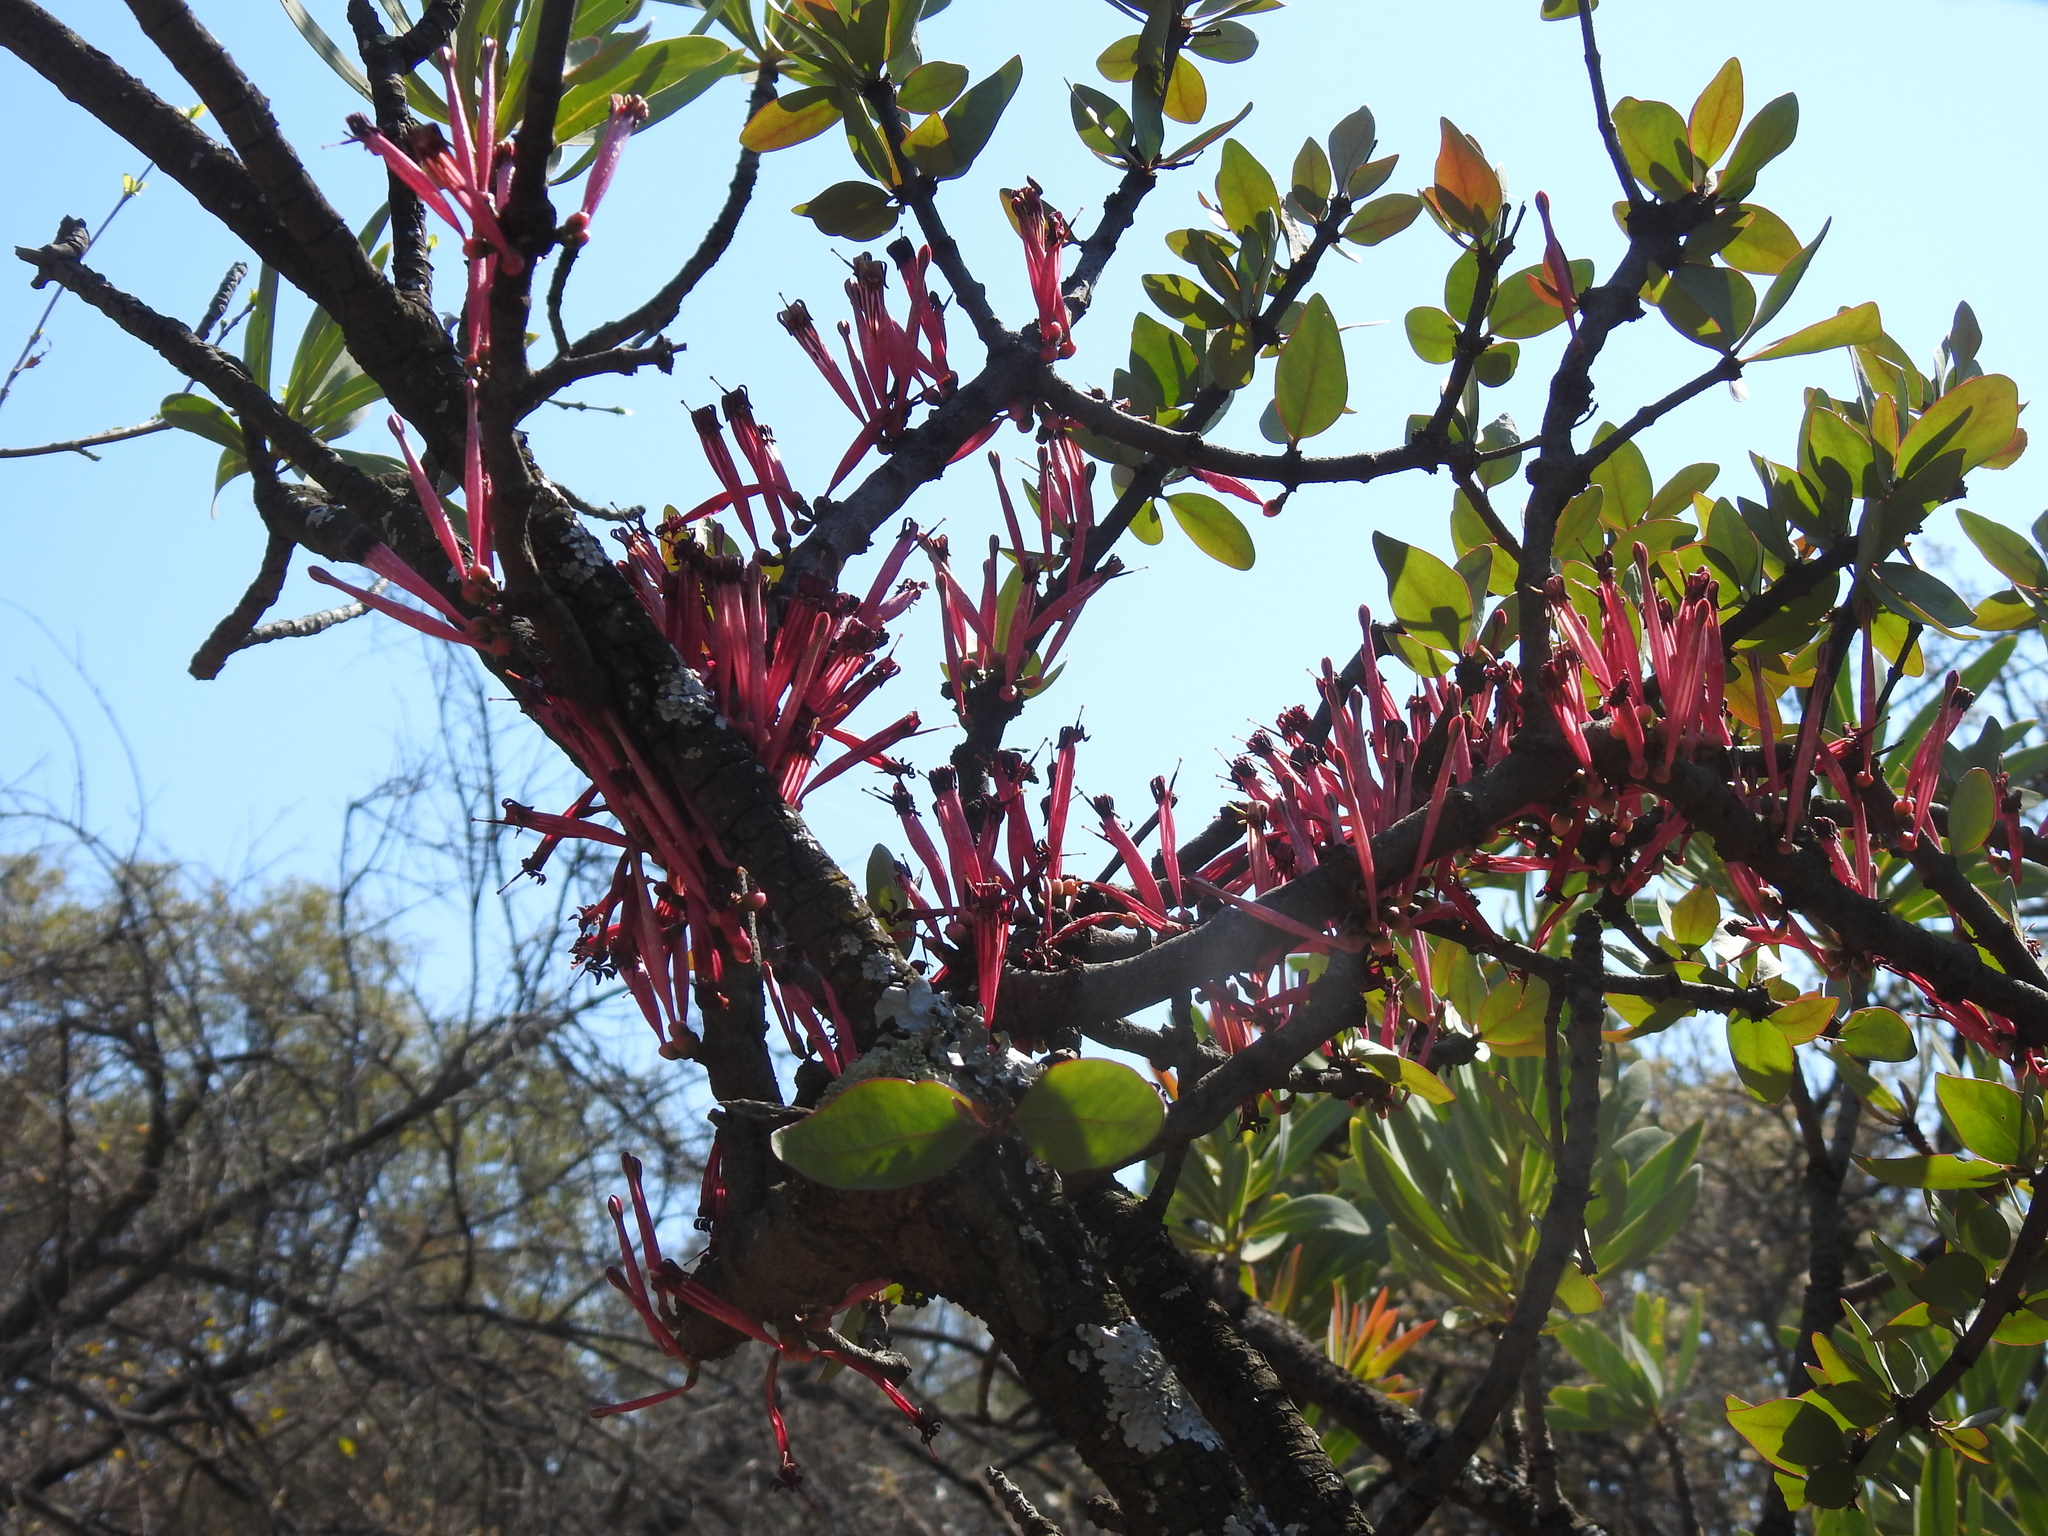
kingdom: Plantae
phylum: Tracheophyta
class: Magnoliopsida
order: Santalales
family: Loranthaceae
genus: Tapinanthus
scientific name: Tapinanthus rubromarginatus
